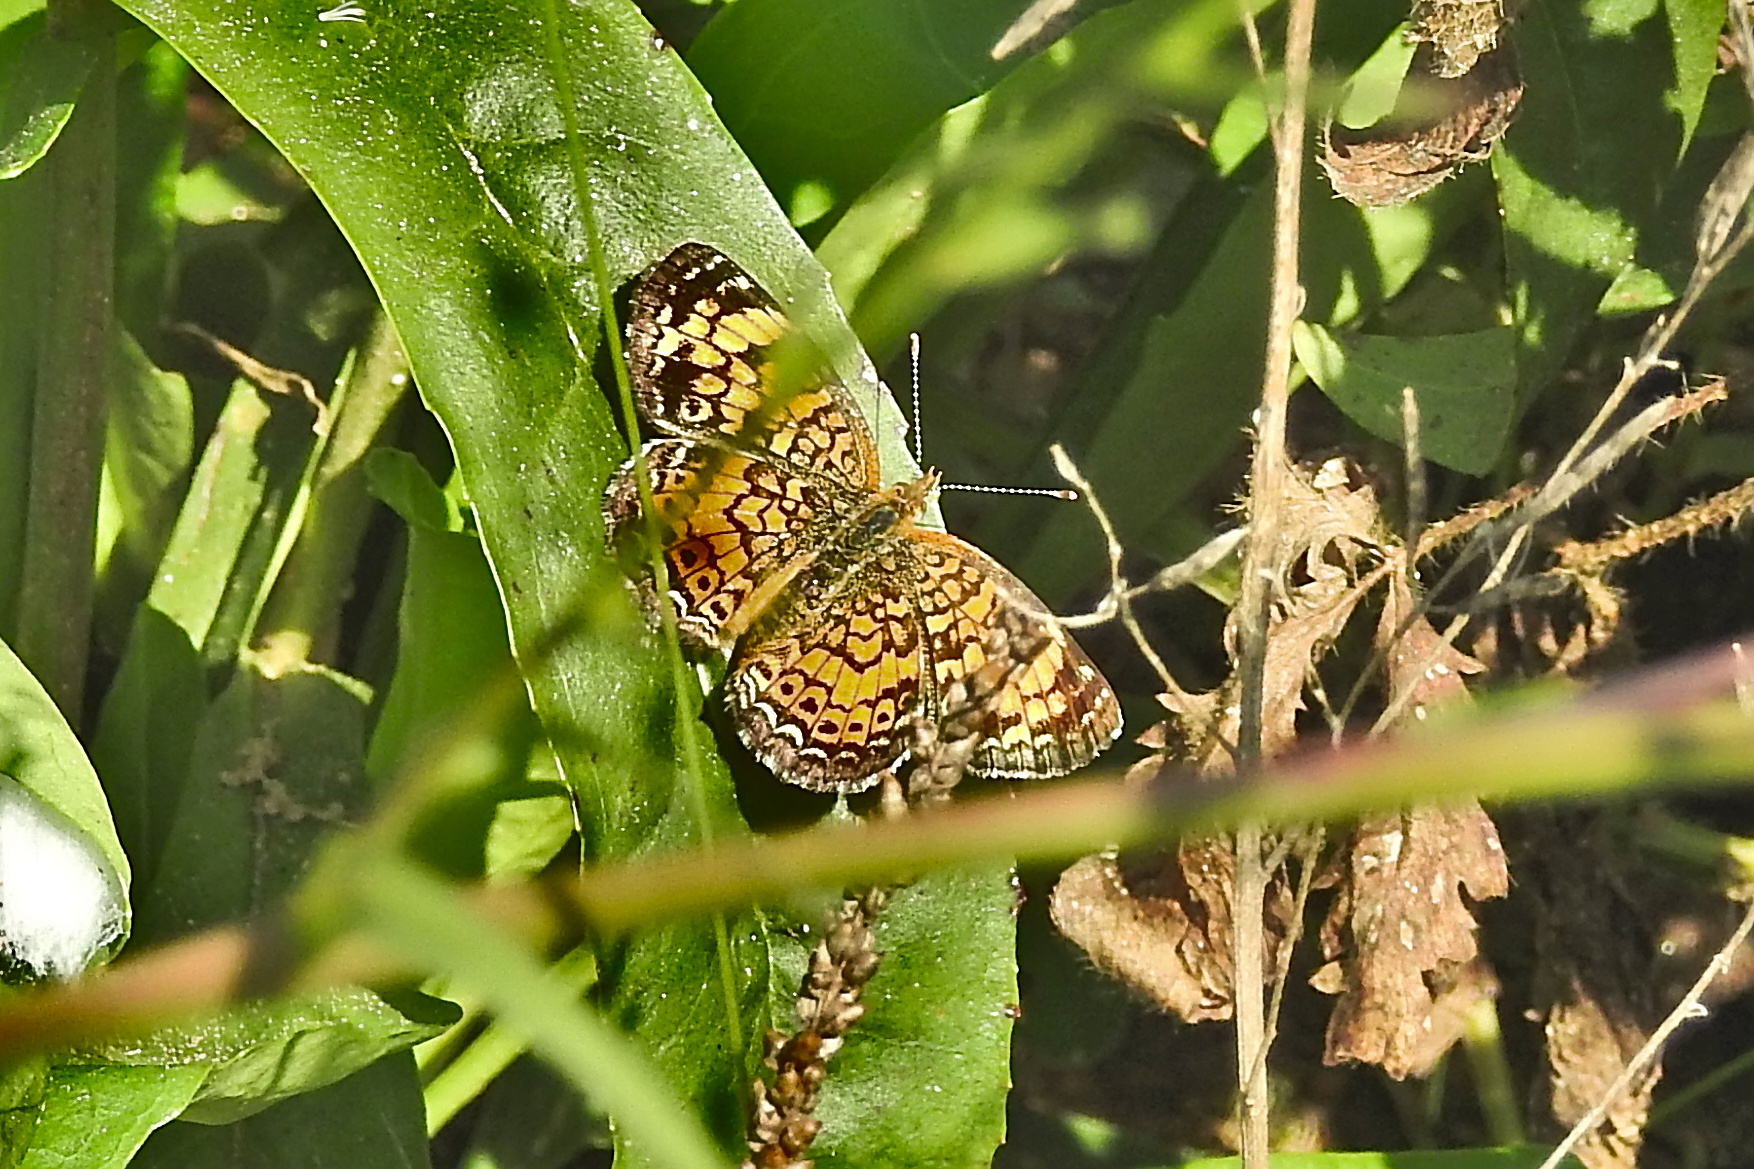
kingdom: Animalia
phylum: Arthropoda
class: Insecta
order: Lepidoptera
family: Nymphalidae
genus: Phyciodes
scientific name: Phyciodes tharos
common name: Pearl crescent
